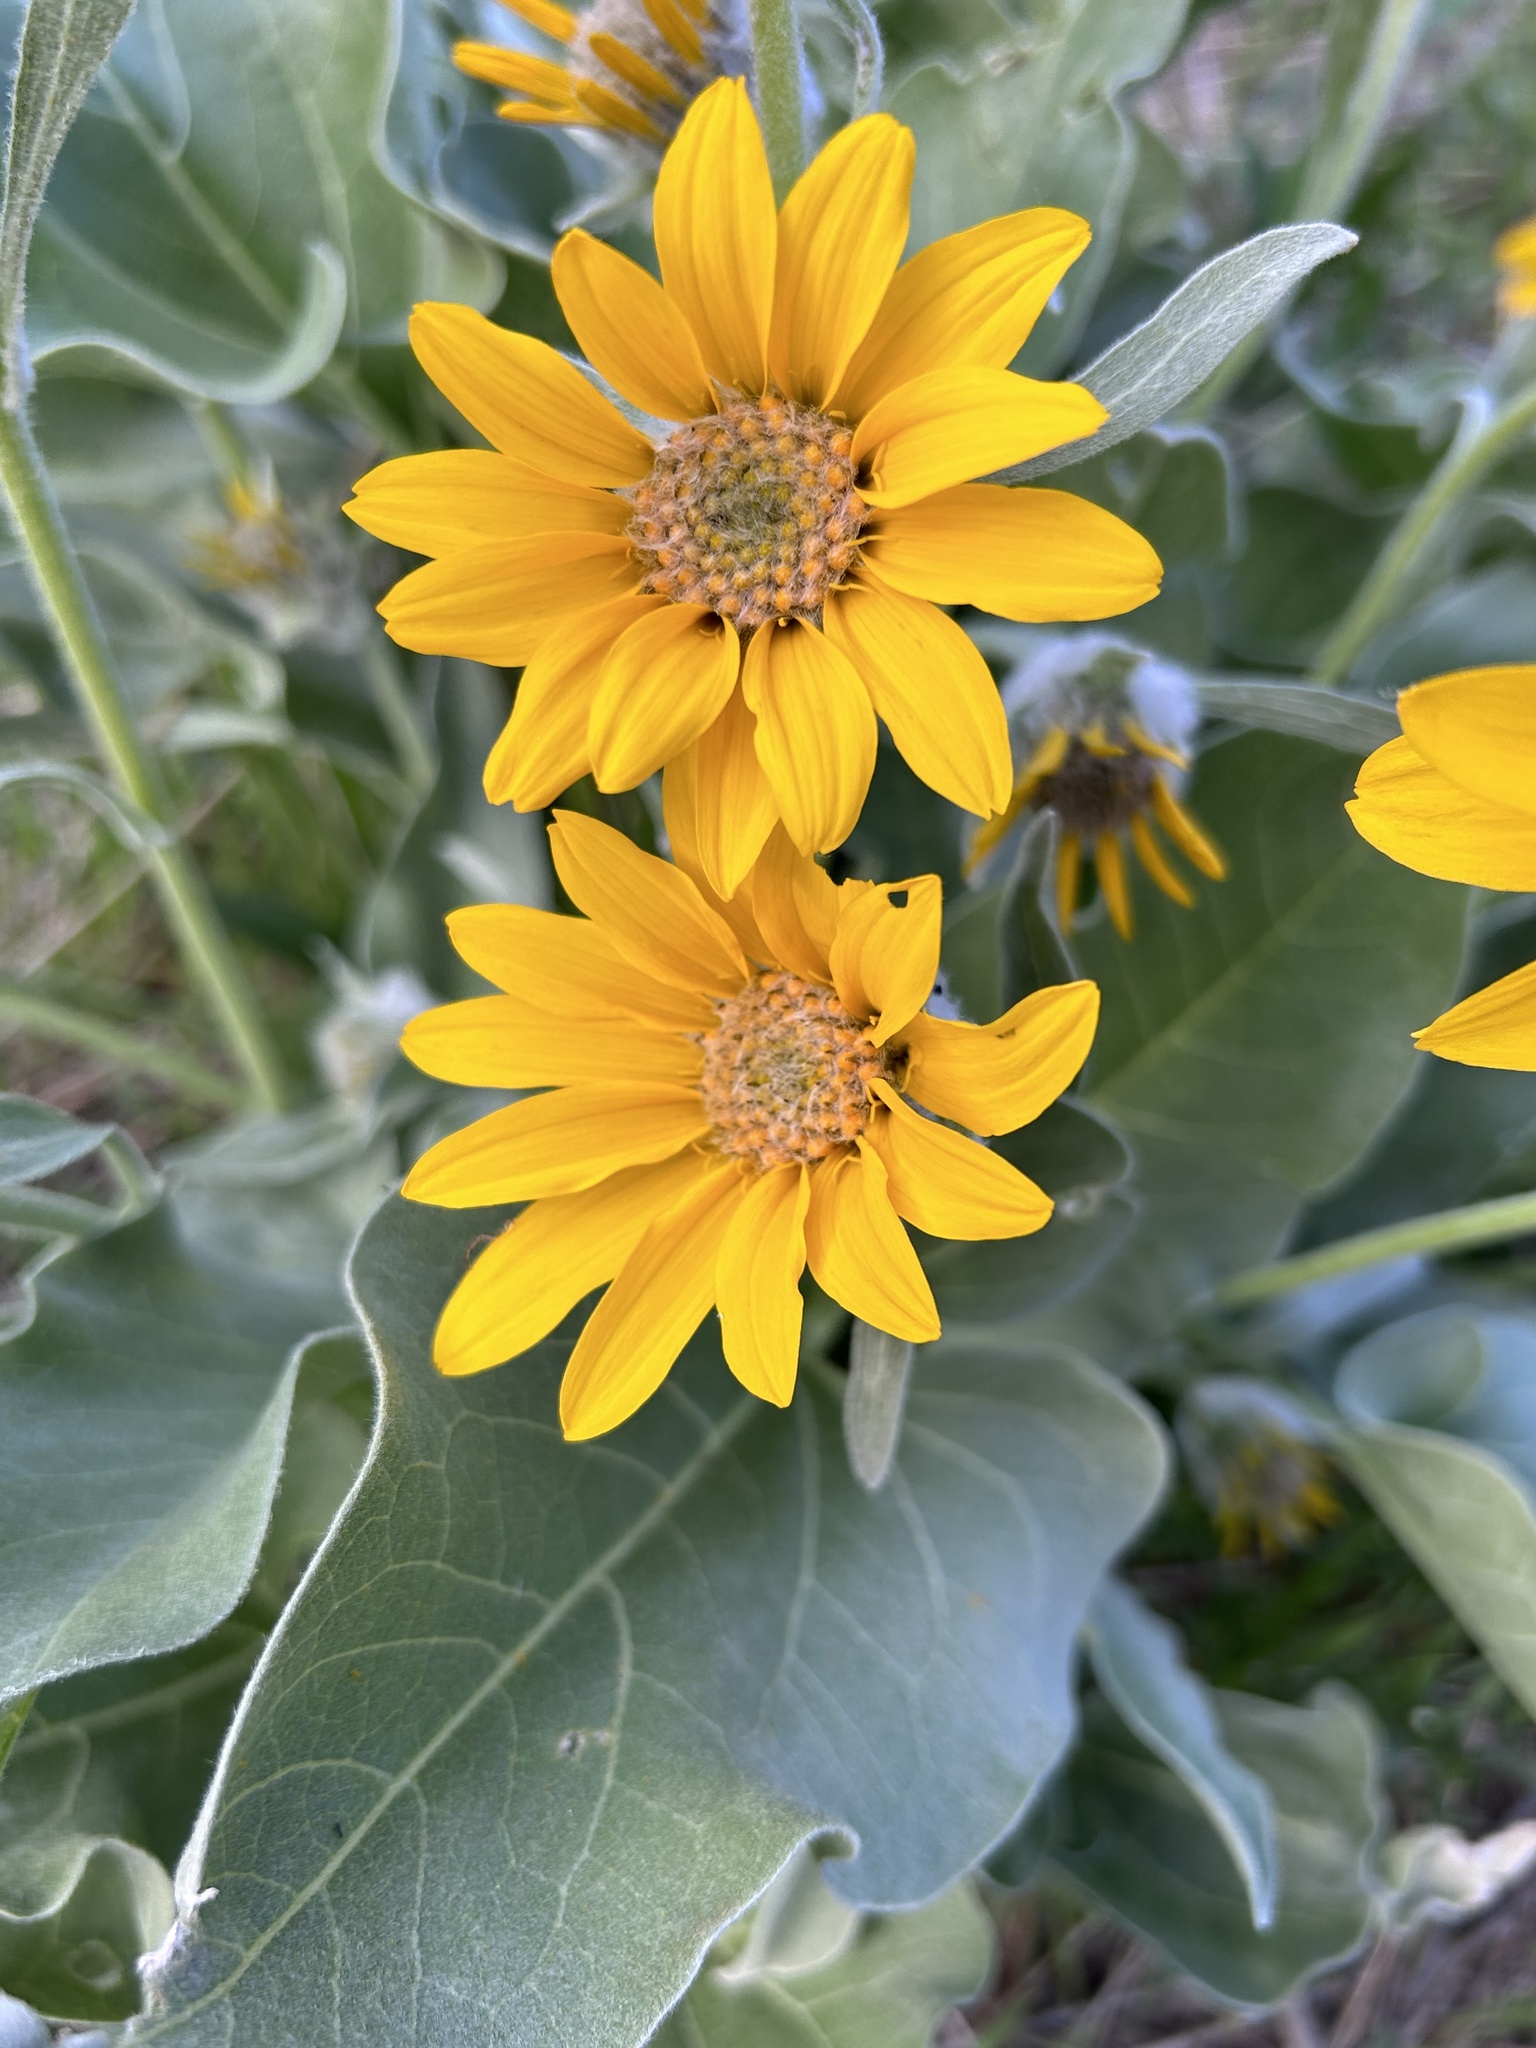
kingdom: Plantae
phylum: Tracheophyta
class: Magnoliopsida
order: Asterales
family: Asteraceae
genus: Wyethia
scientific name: Wyethia sagittata
